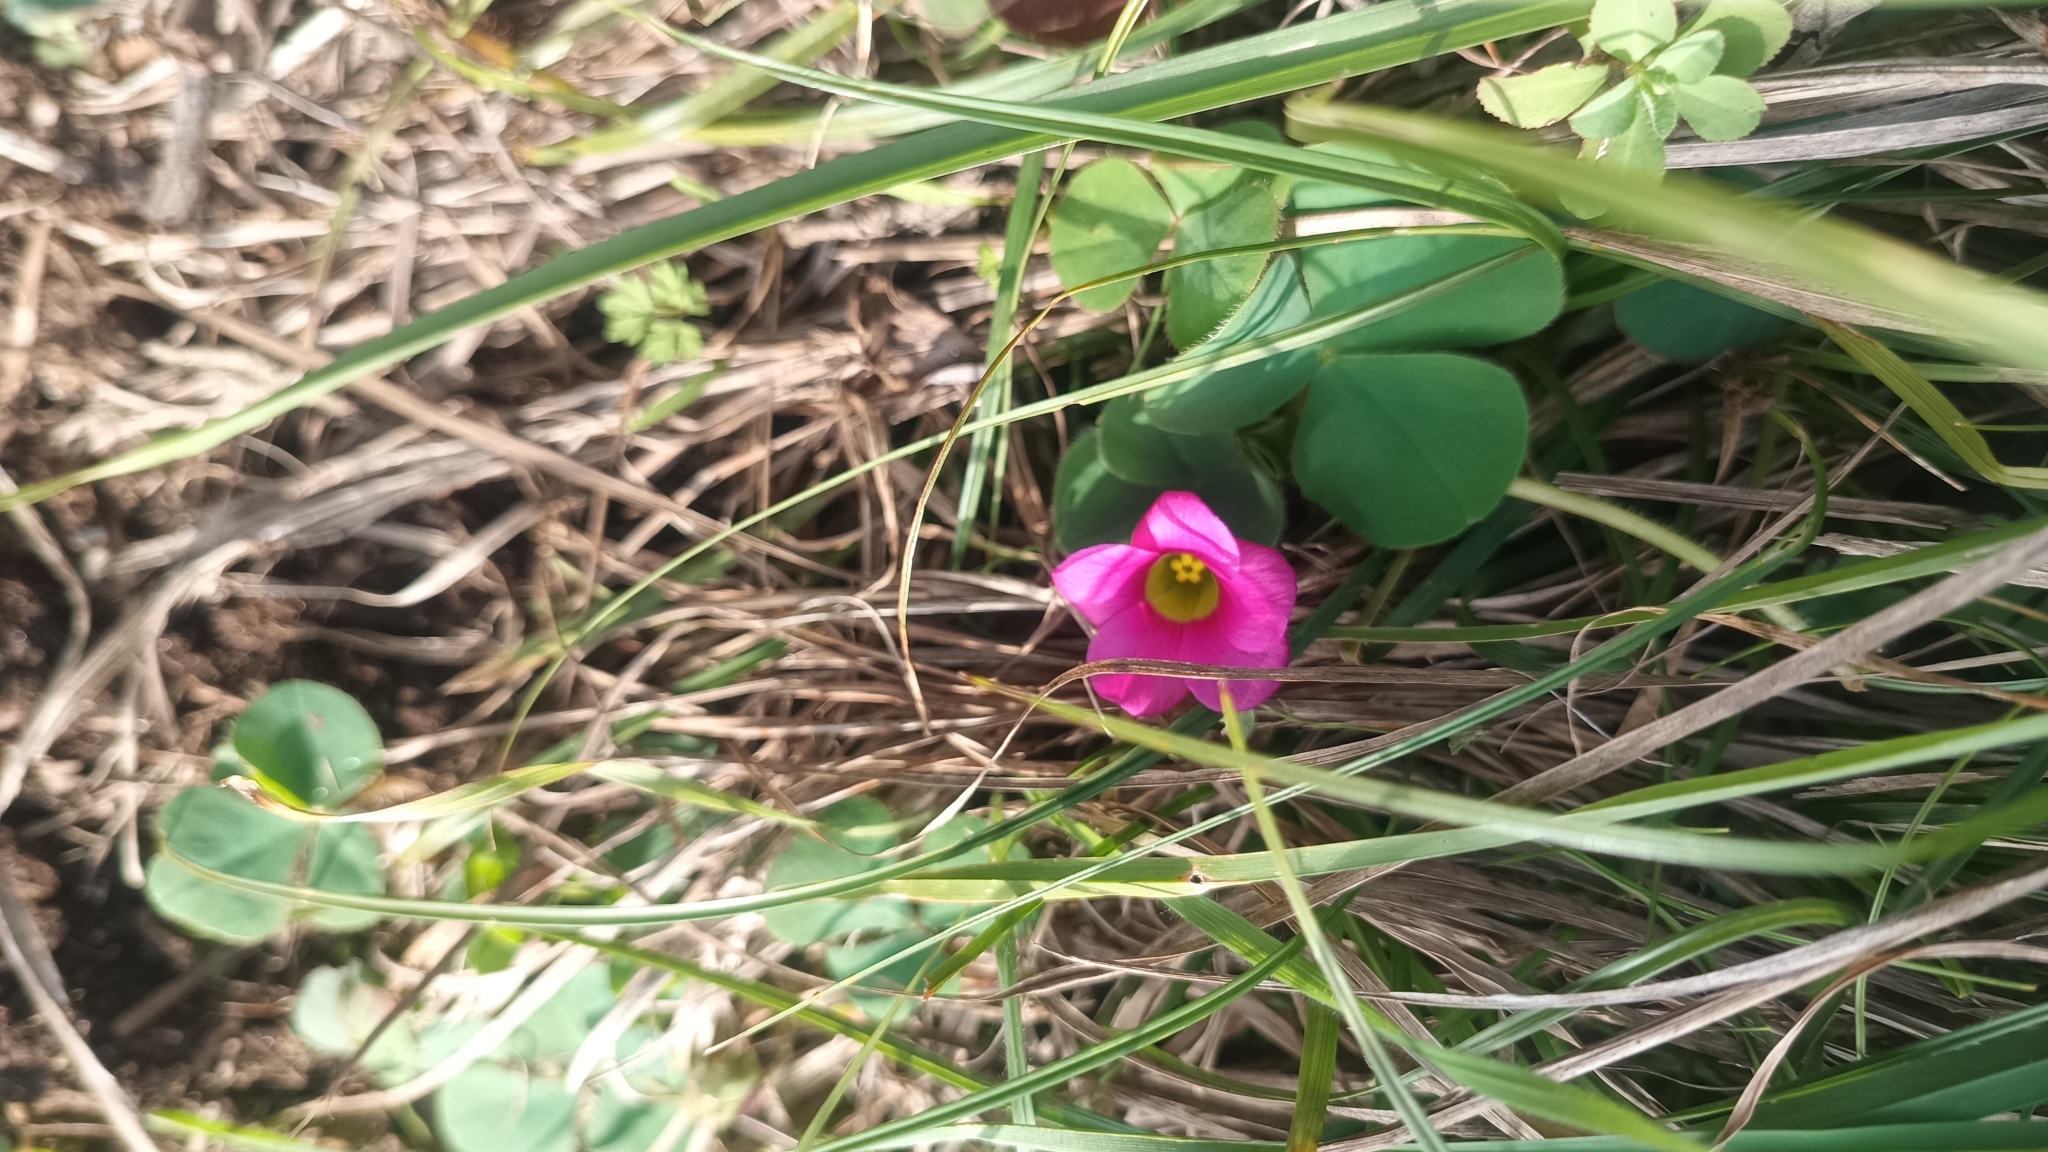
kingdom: Plantae
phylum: Tracheophyta
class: Magnoliopsida
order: Oxalidales
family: Oxalidaceae
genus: Oxalis
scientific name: Oxalis purpurea
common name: Purple woodsorrel
